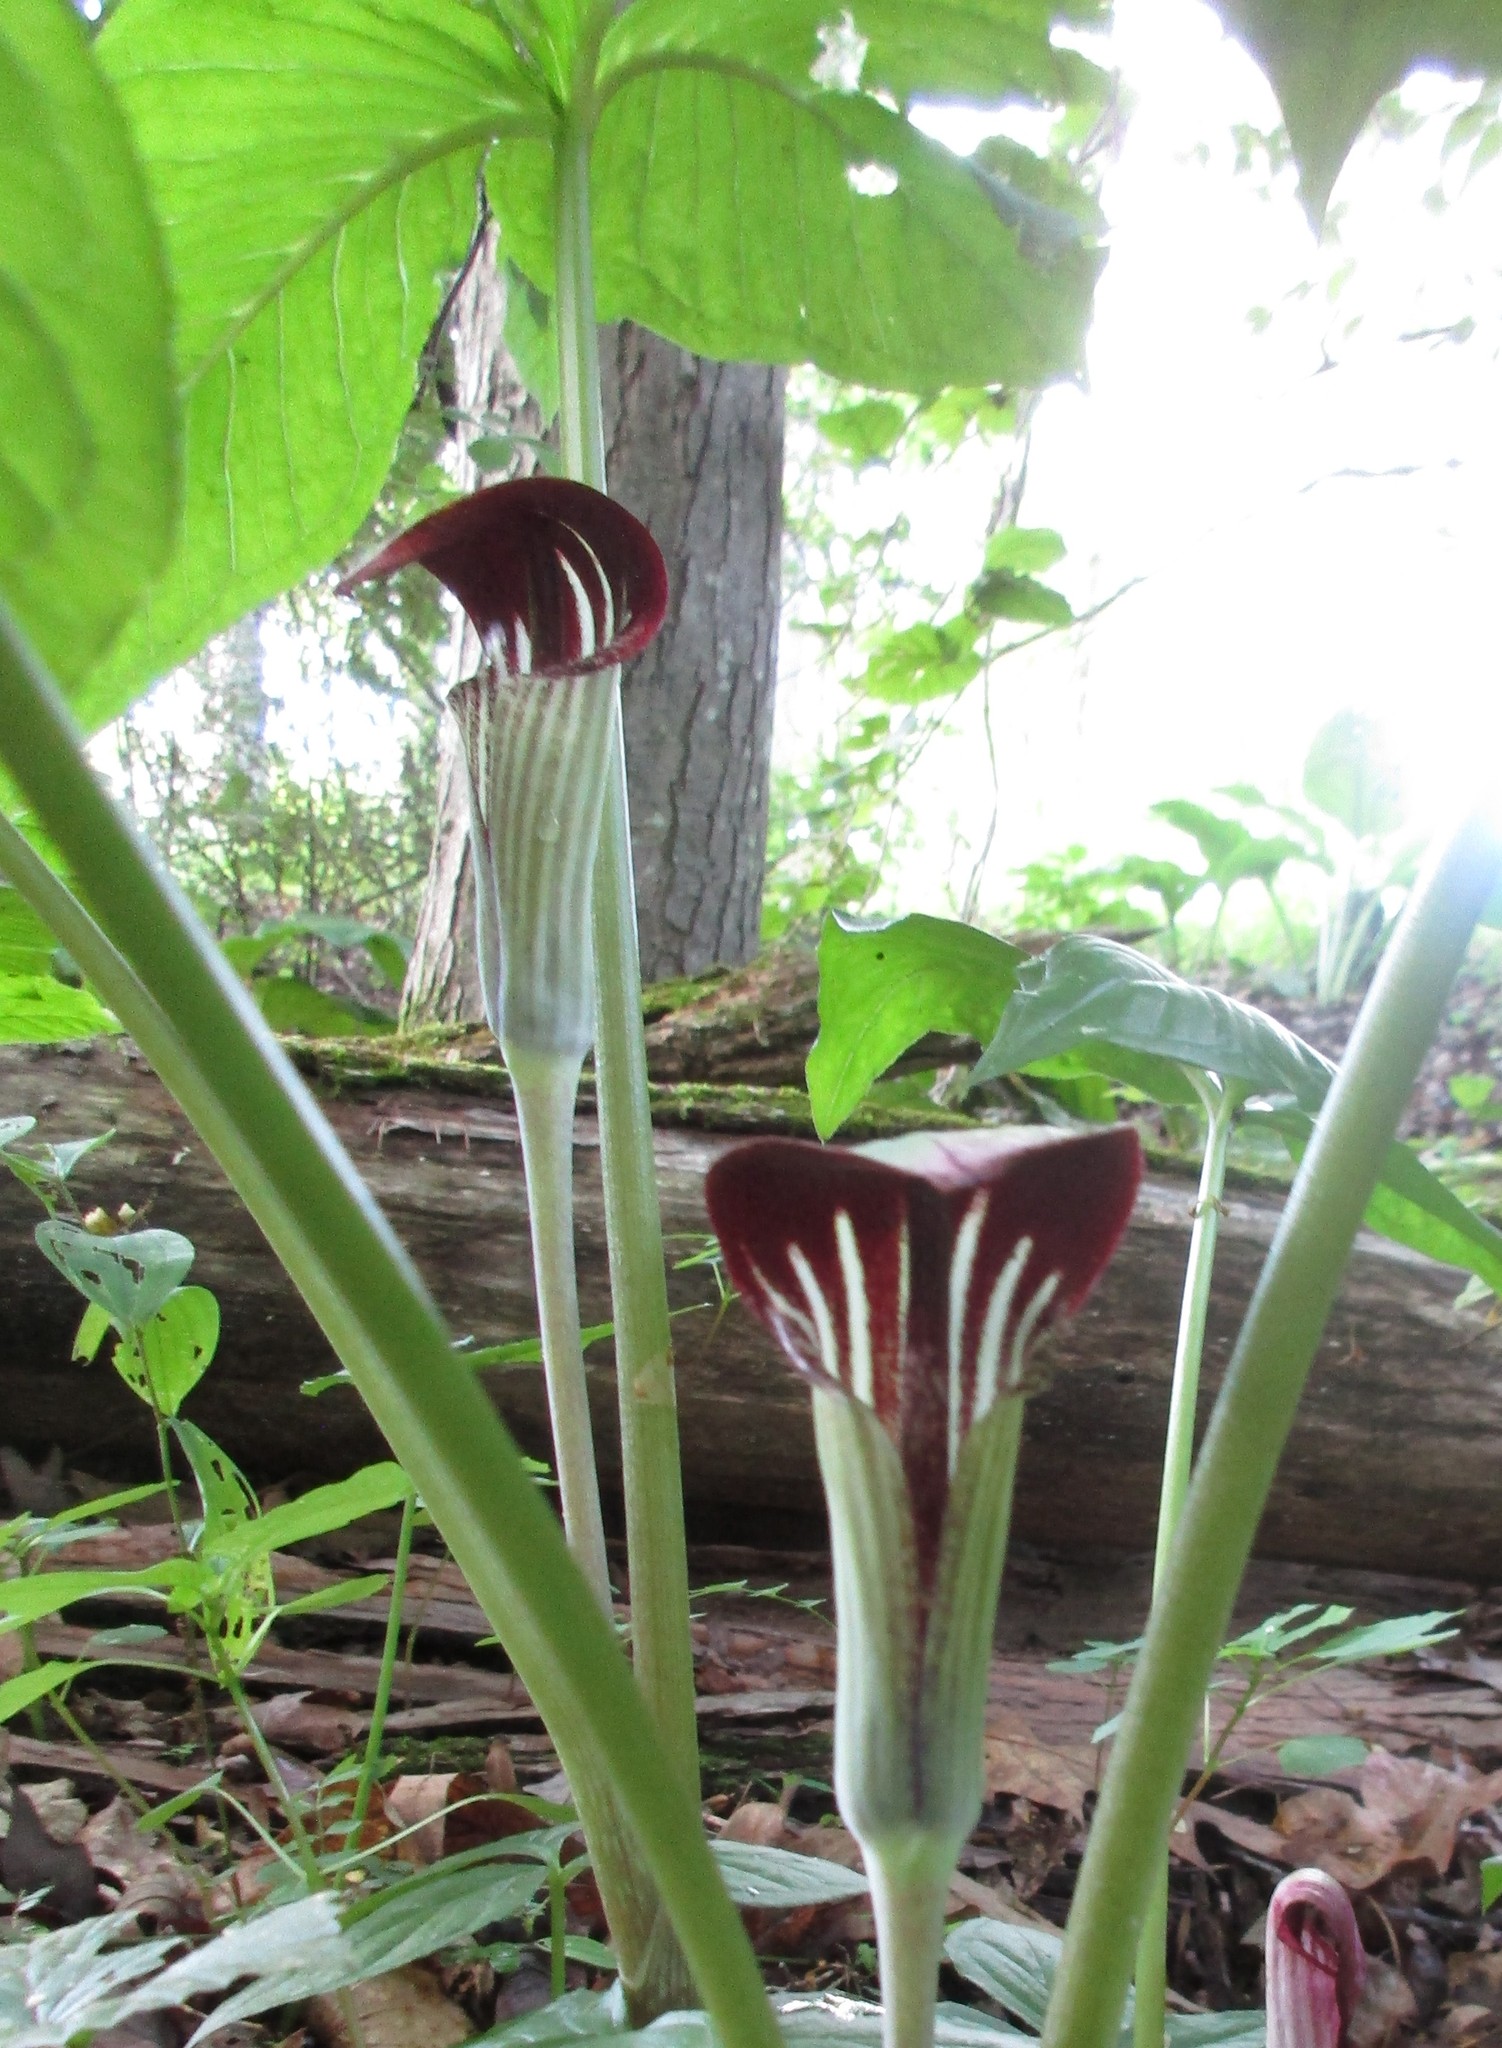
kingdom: Plantae
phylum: Tracheophyta
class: Liliopsida
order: Alismatales
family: Araceae
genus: Arisaema
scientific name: Arisaema triphyllum
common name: Jack-in-the-pulpit
